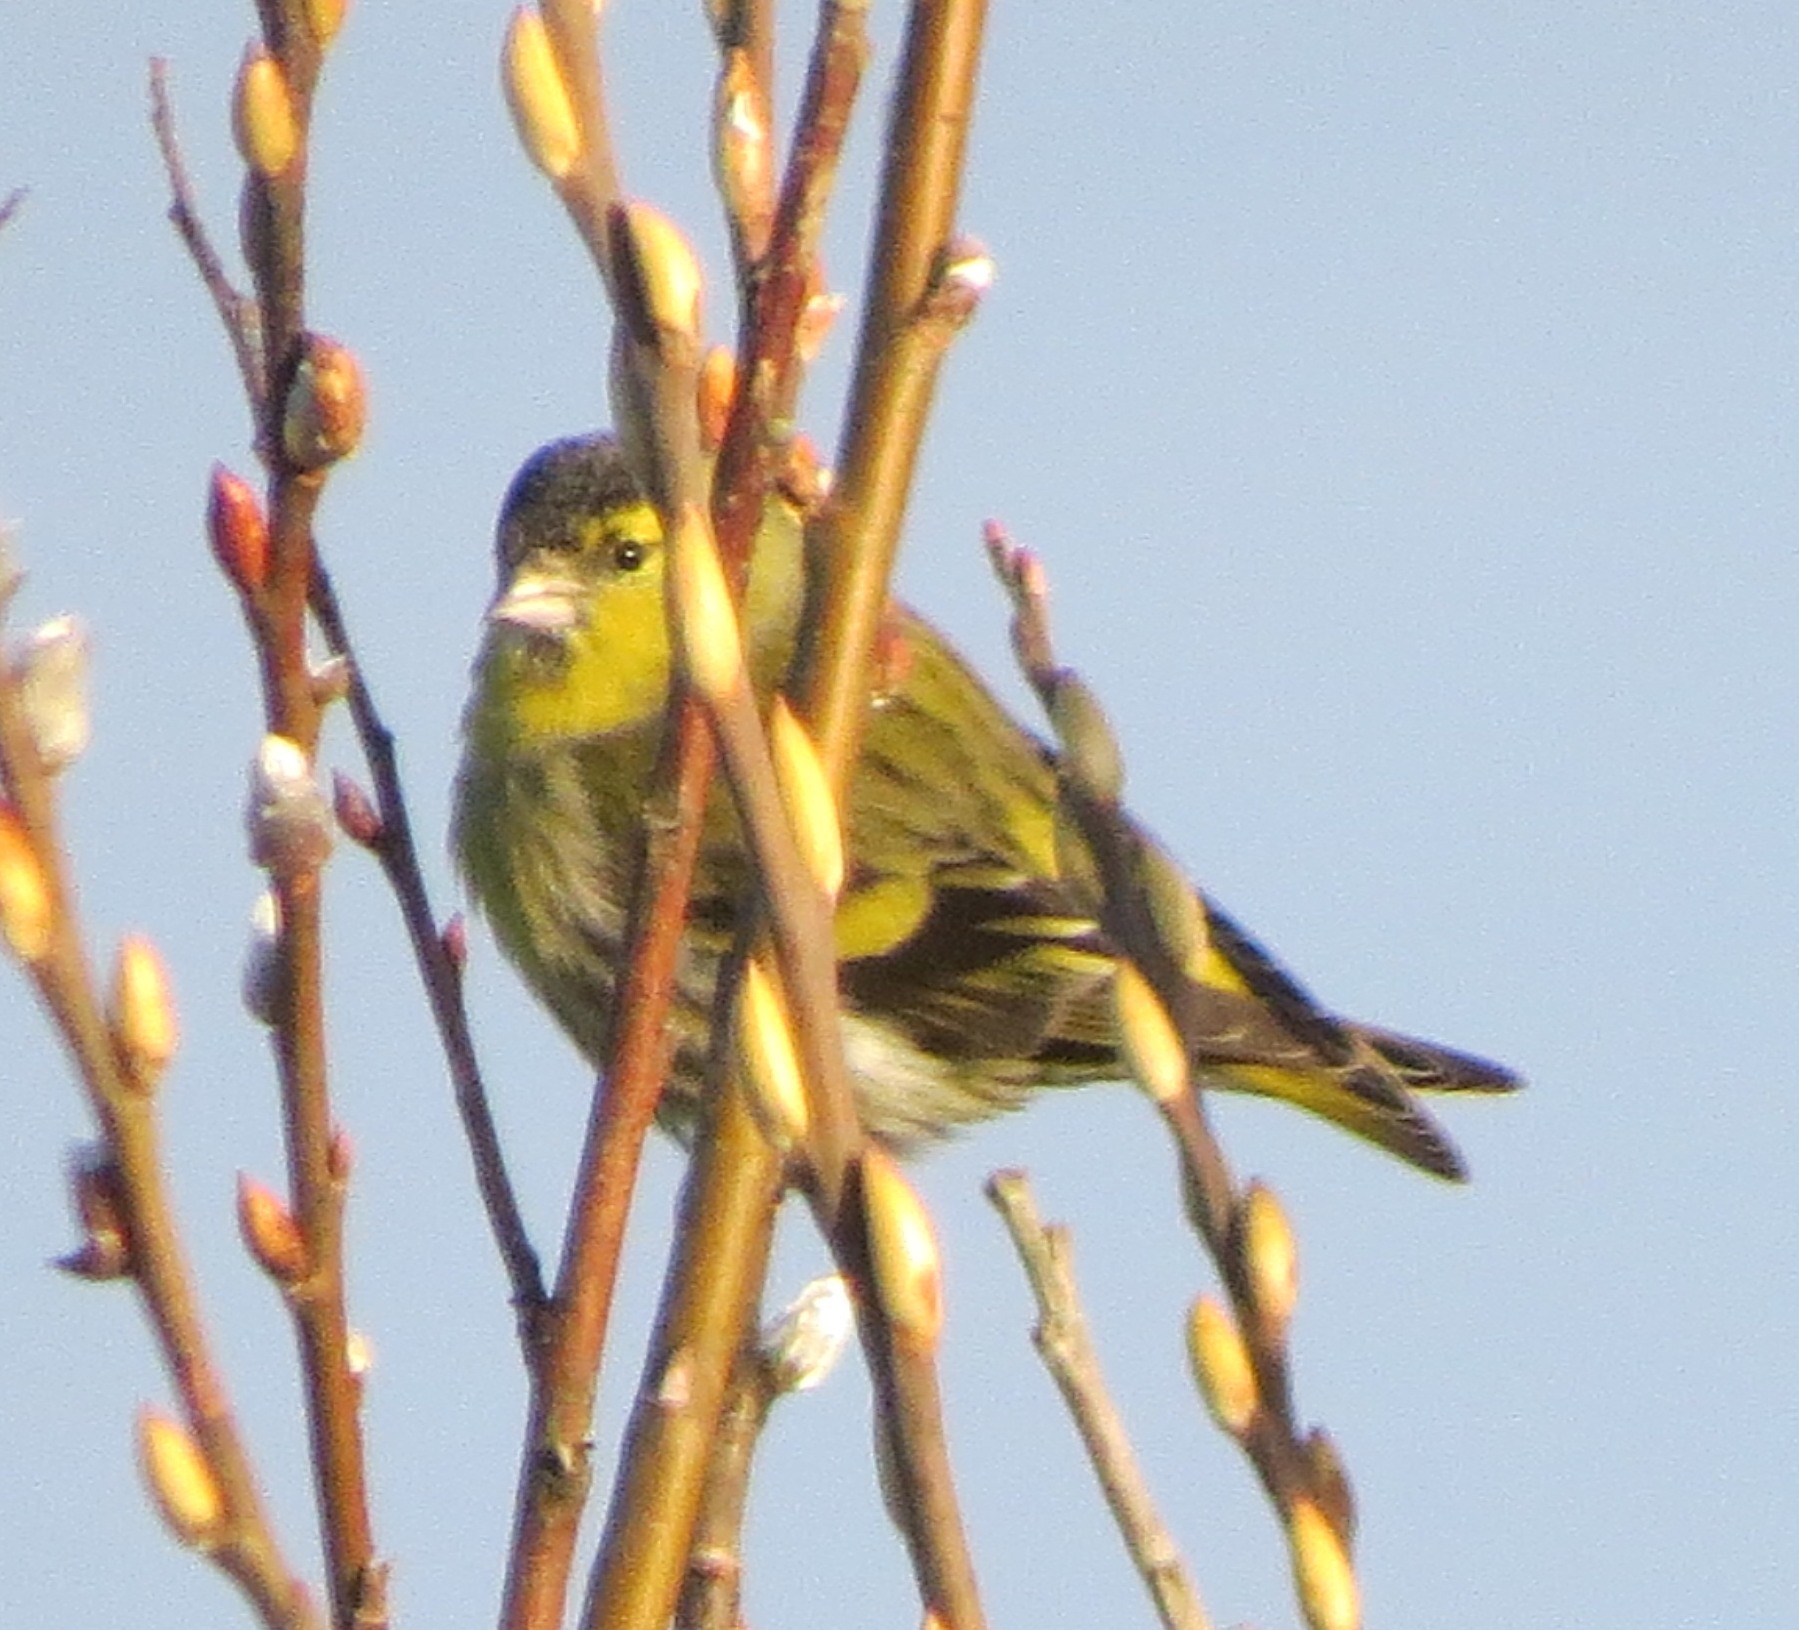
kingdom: Animalia
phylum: Chordata
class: Aves
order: Passeriformes
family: Fringillidae
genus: Spinus
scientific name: Spinus spinus
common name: Eurasian siskin
